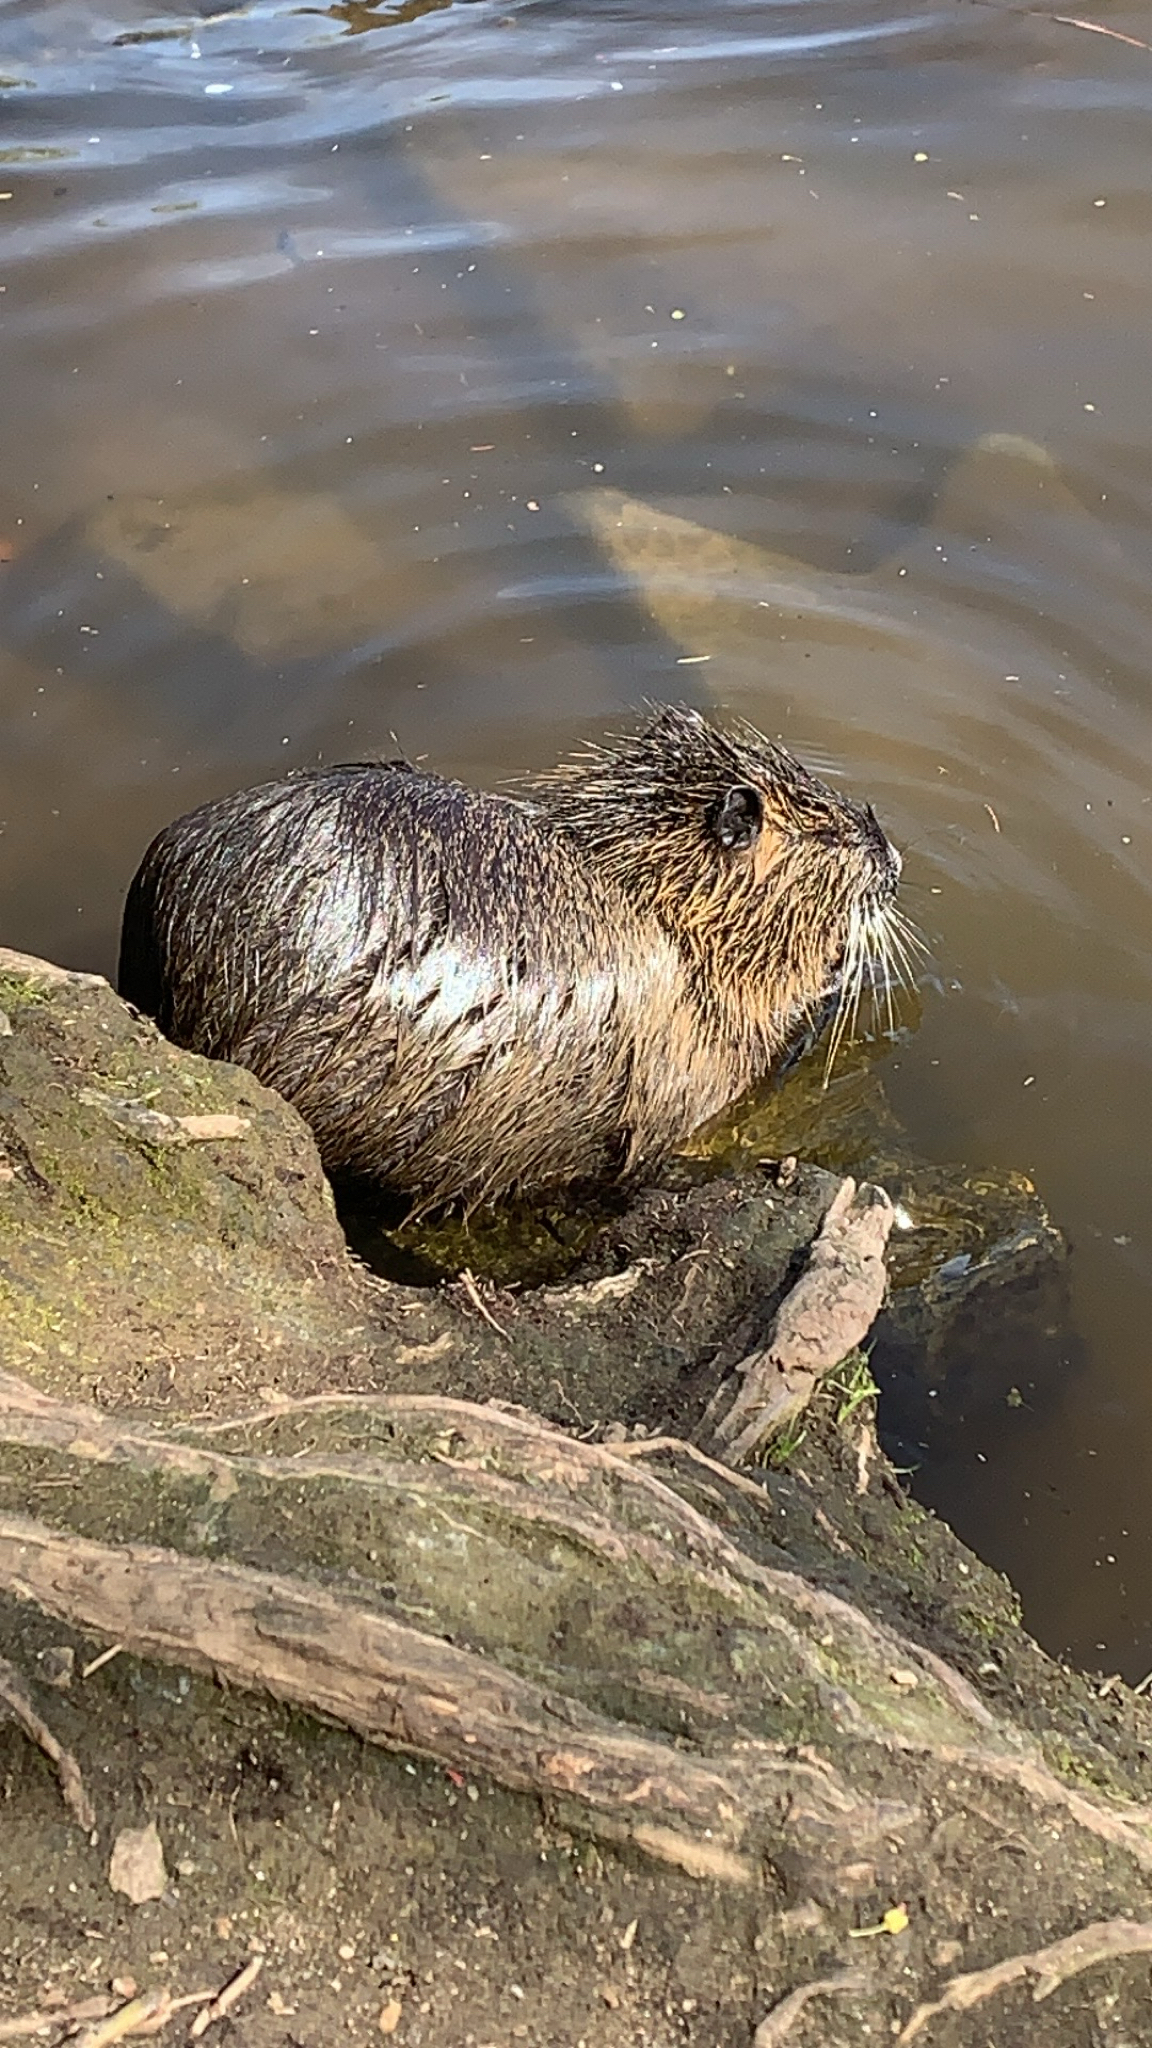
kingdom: Animalia
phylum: Chordata
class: Mammalia
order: Rodentia
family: Myocastoridae
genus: Myocastor
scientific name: Myocastor coypus
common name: Coypu
